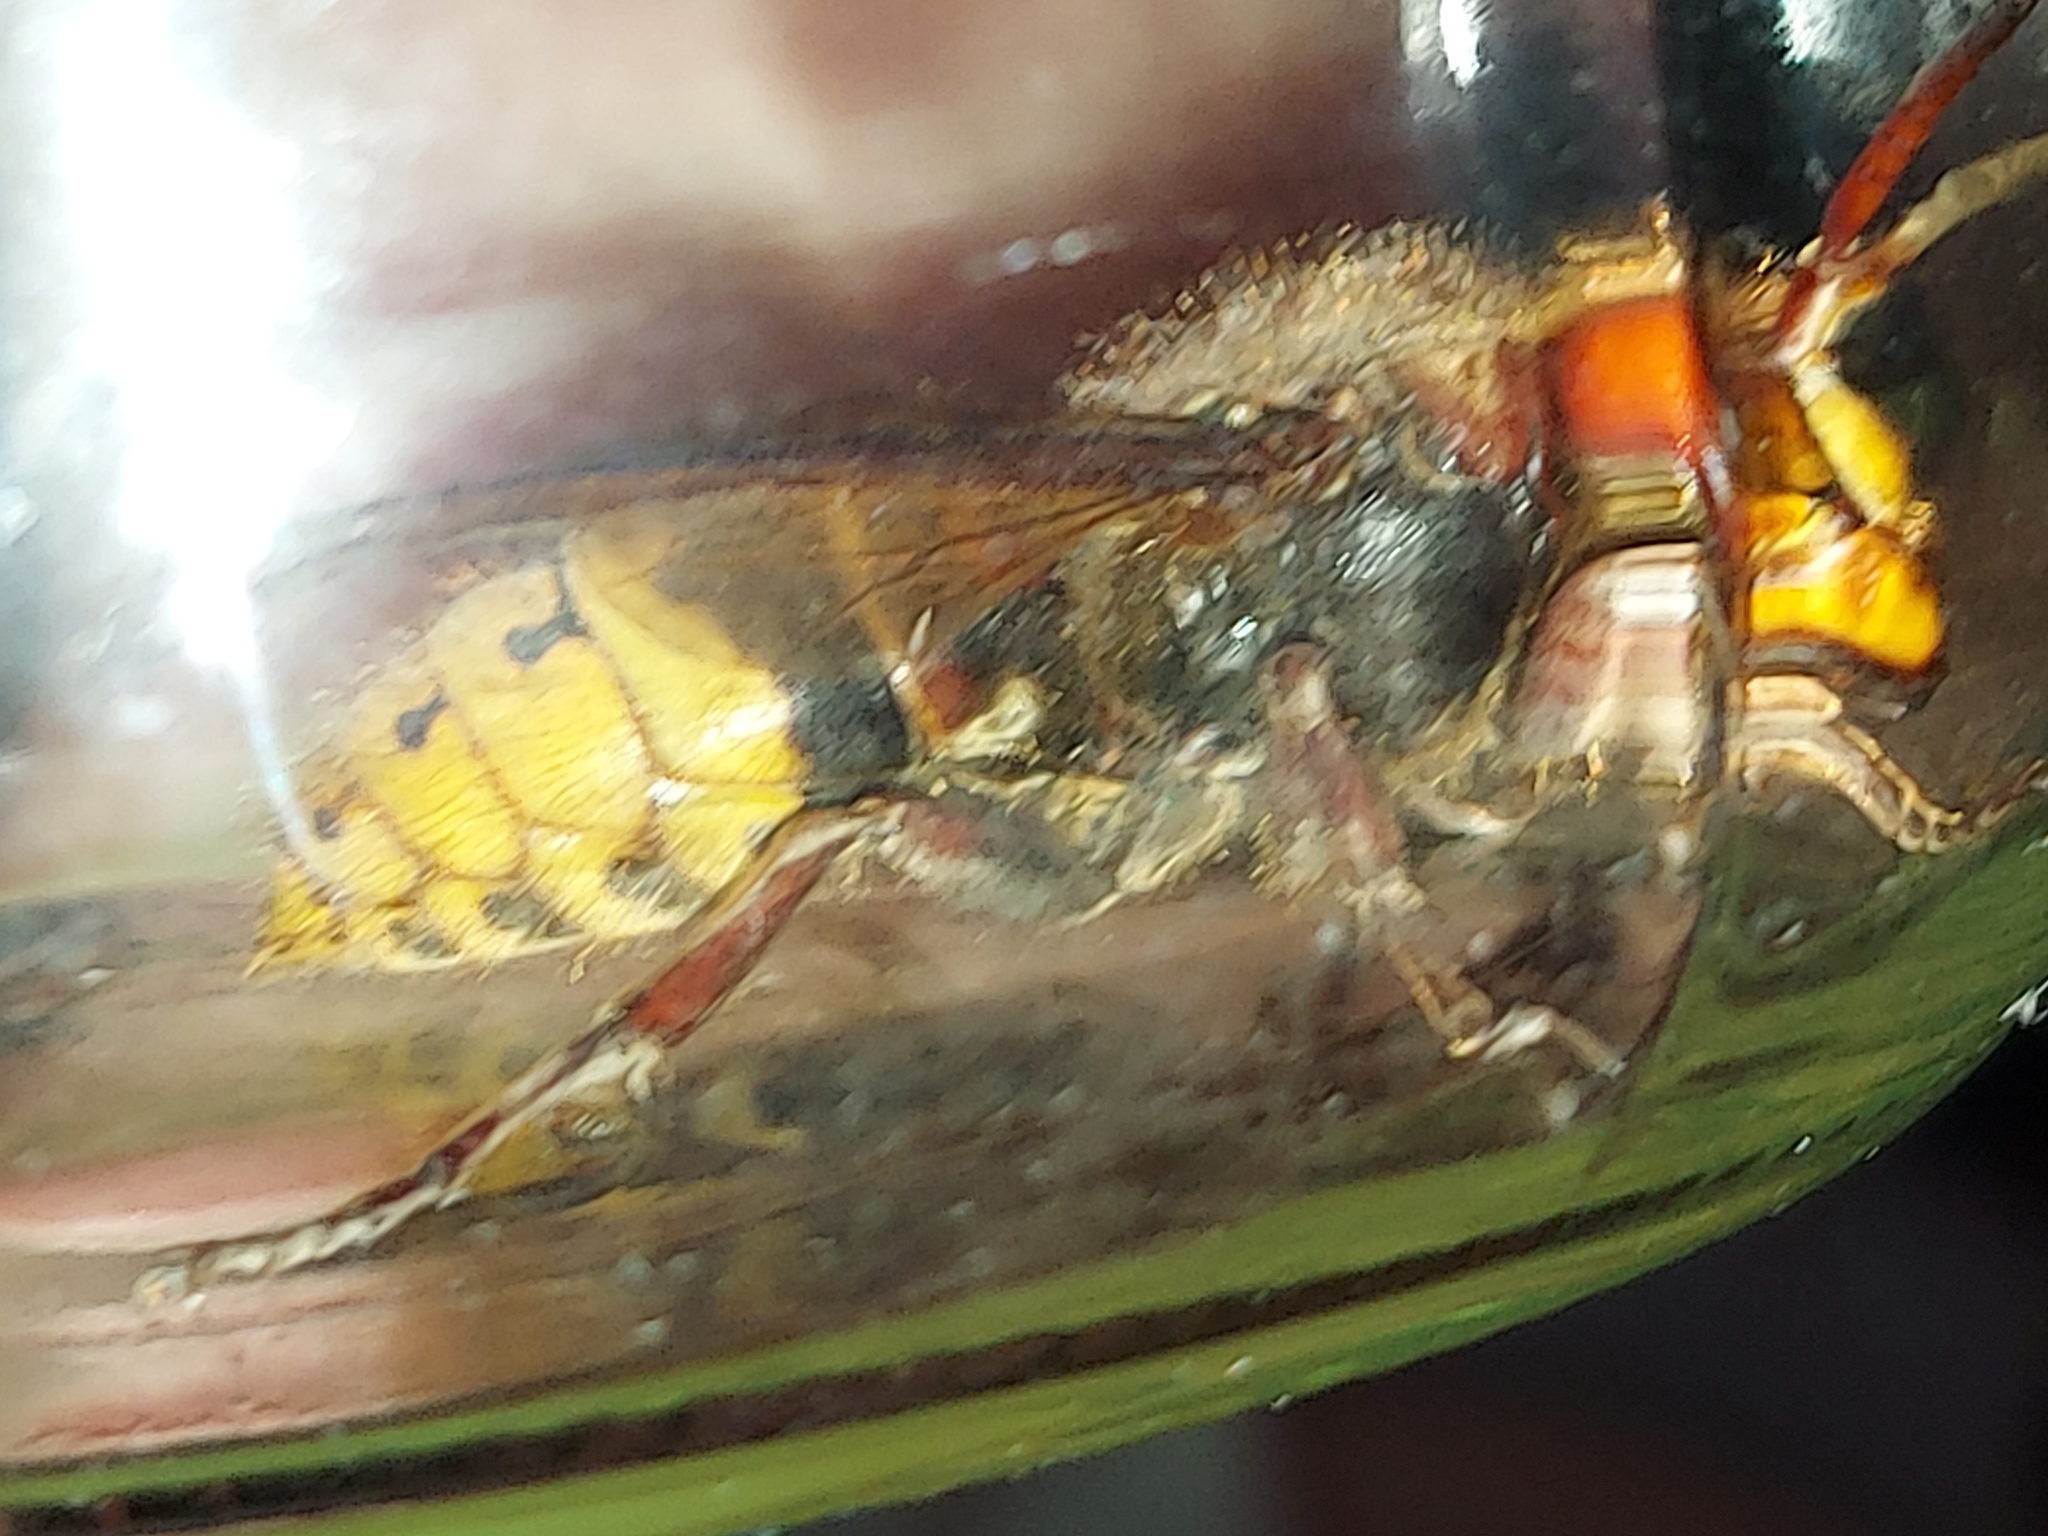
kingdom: Animalia
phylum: Arthropoda
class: Insecta
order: Hymenoptera
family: Vespidae
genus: Vespa
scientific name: Vespa crabro
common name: Hornet
